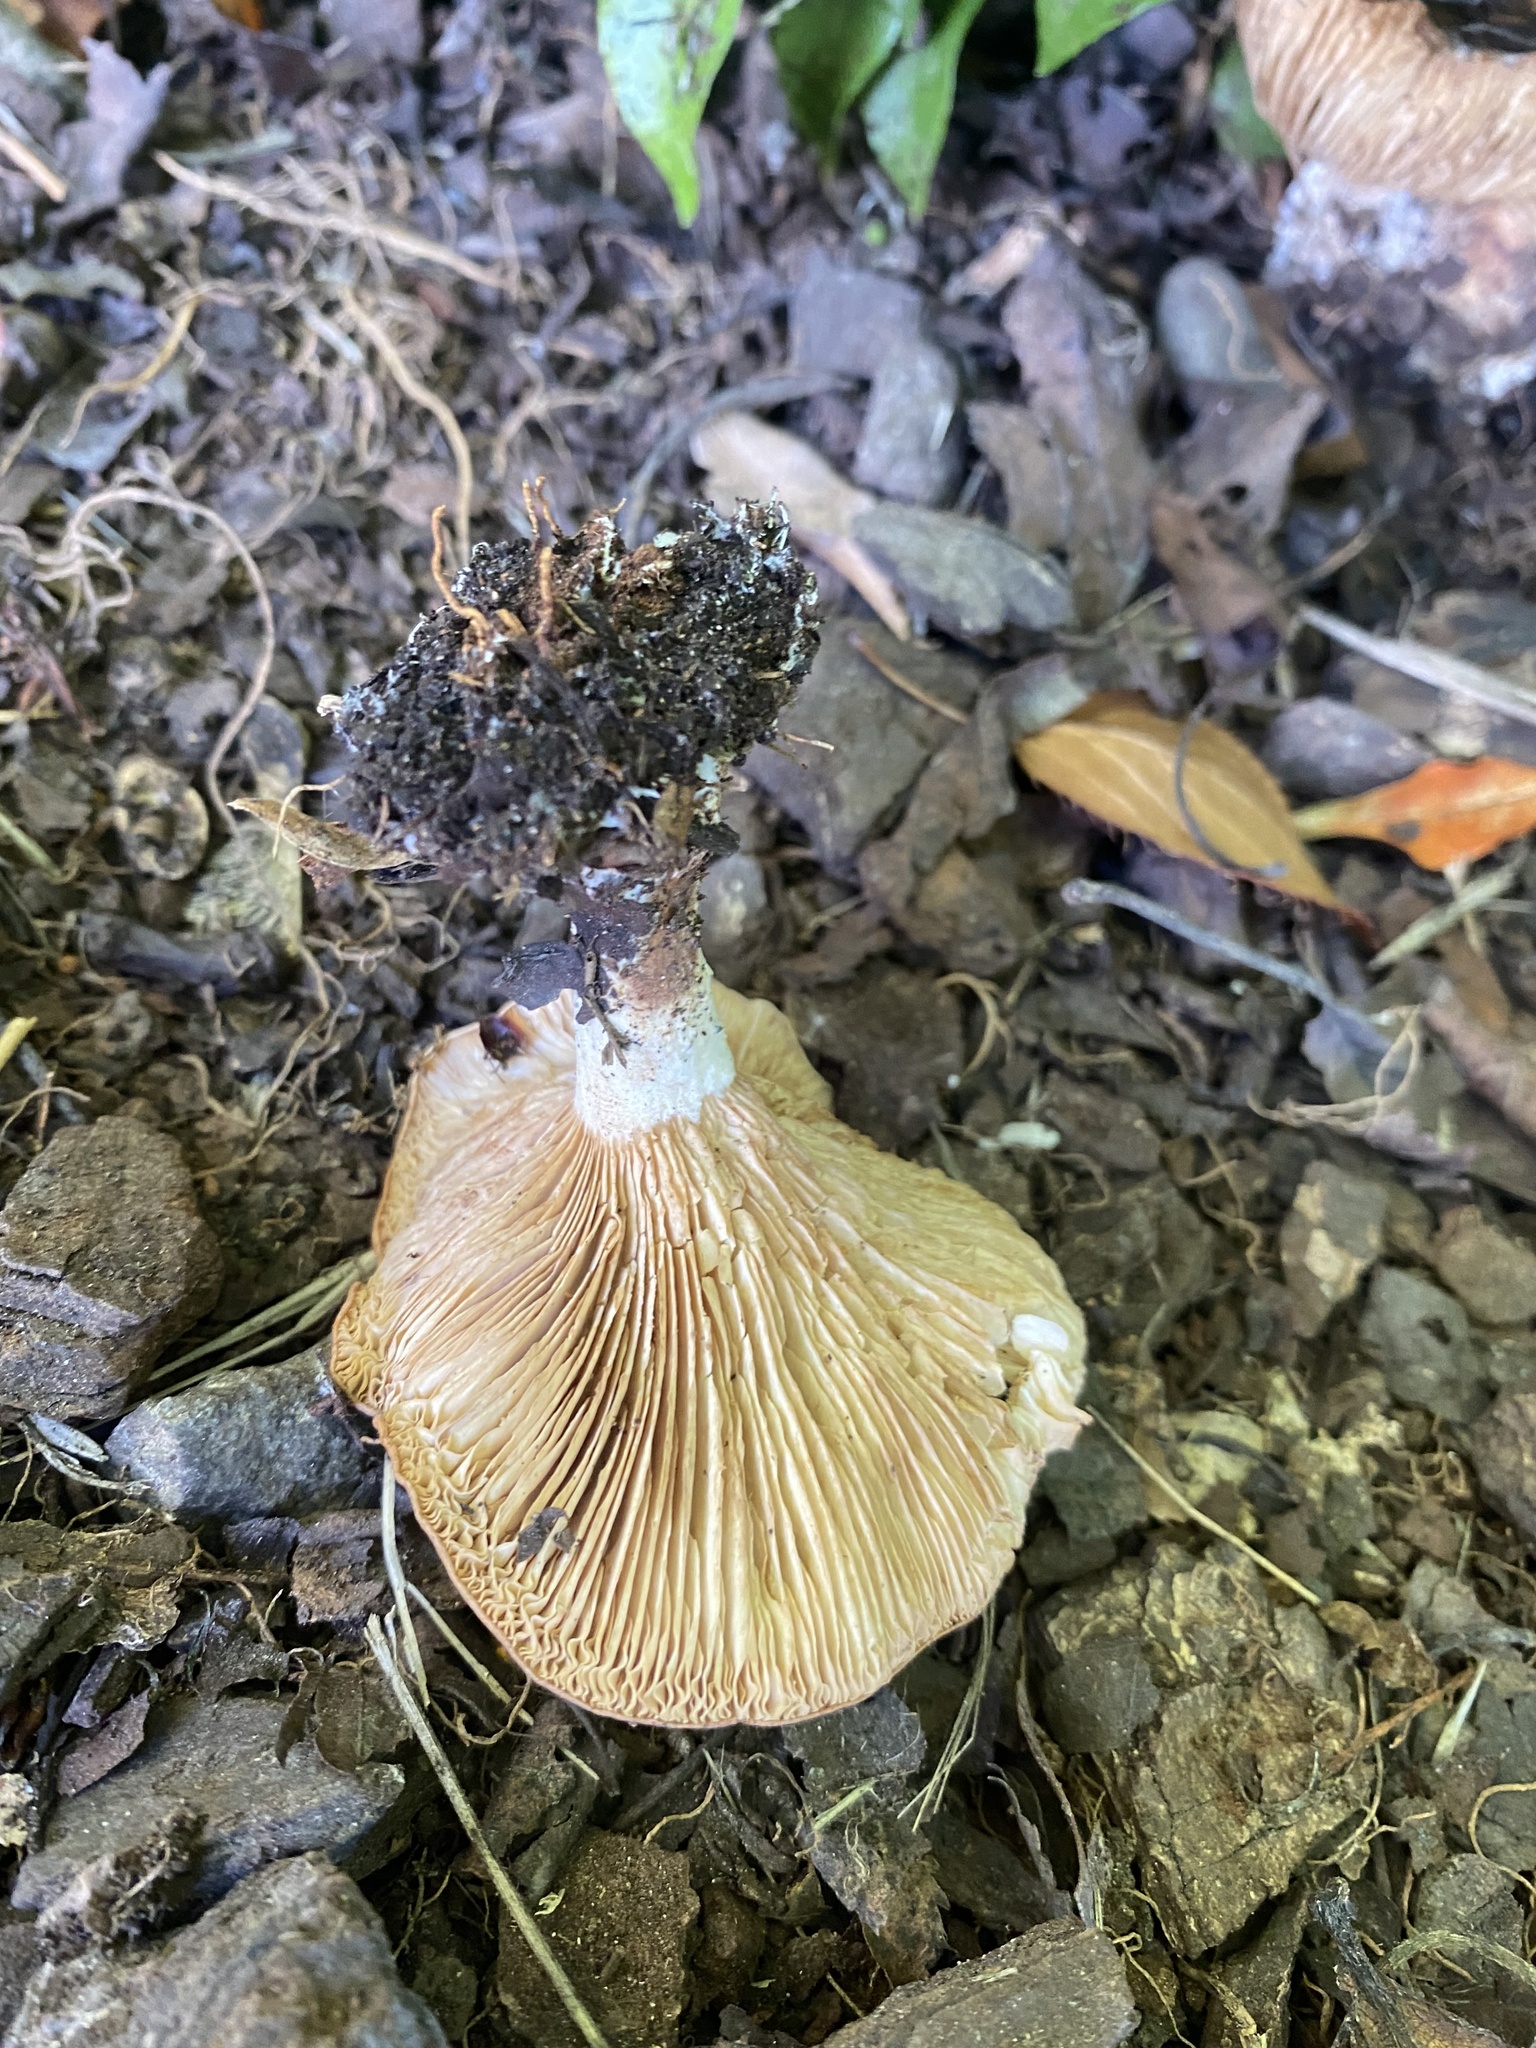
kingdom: Fungi
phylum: Basidiomycota
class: Agaricomycetes
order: Agaricales
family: Entolomataceae
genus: Clitopilus
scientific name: Clitopilus piperitus
